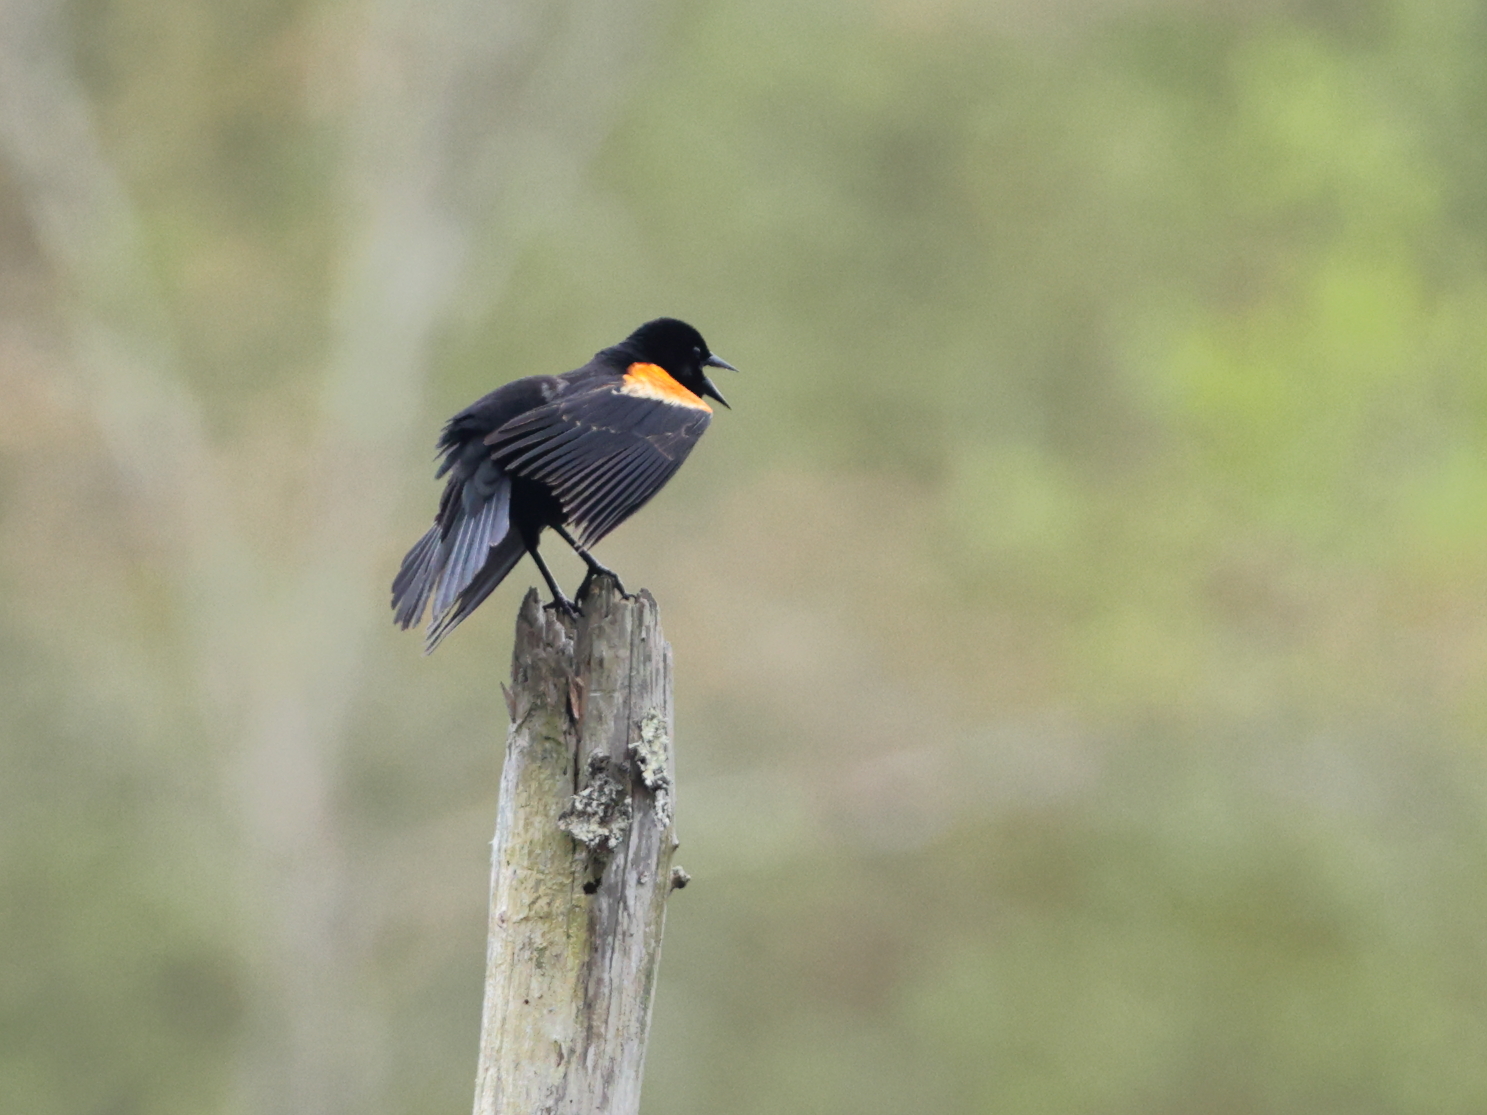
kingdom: Animalia
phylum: Chordata
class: Aves
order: Passeriformes
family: Icteridae
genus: Agelaius
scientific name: Agelaius phoeniceus
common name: Red-winged blackbird
